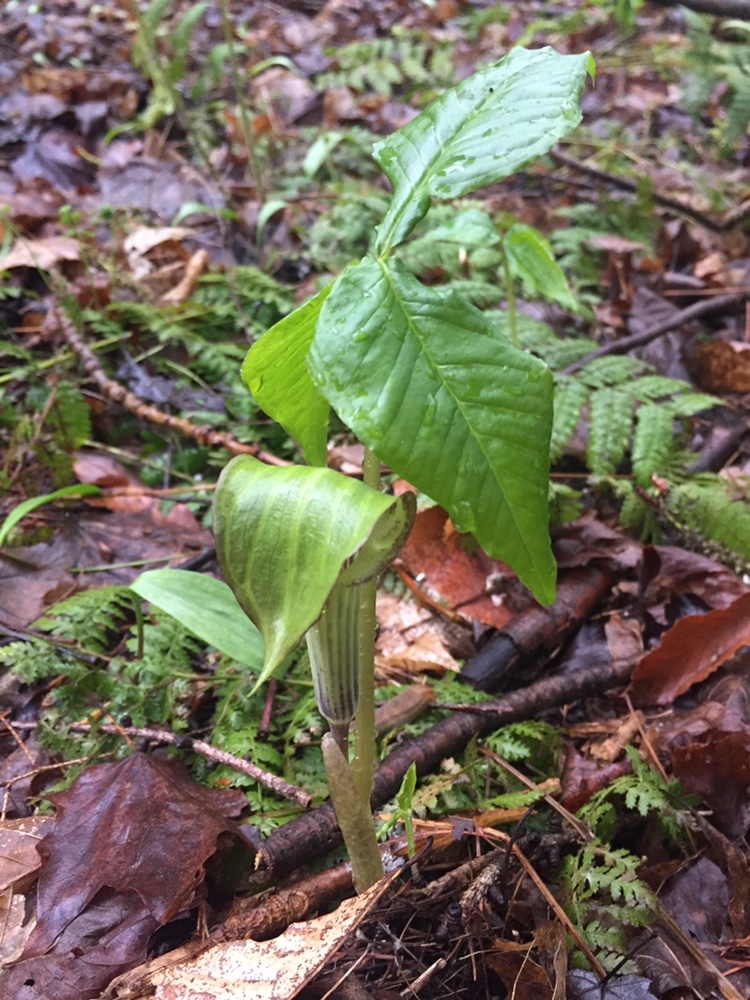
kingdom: Plantae
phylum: Tracheophyta
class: Liliopsida
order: Alismatales
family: Araceae
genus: Arisaema
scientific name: Arisaema triphyllum
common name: Jack-in-the-pulpit
